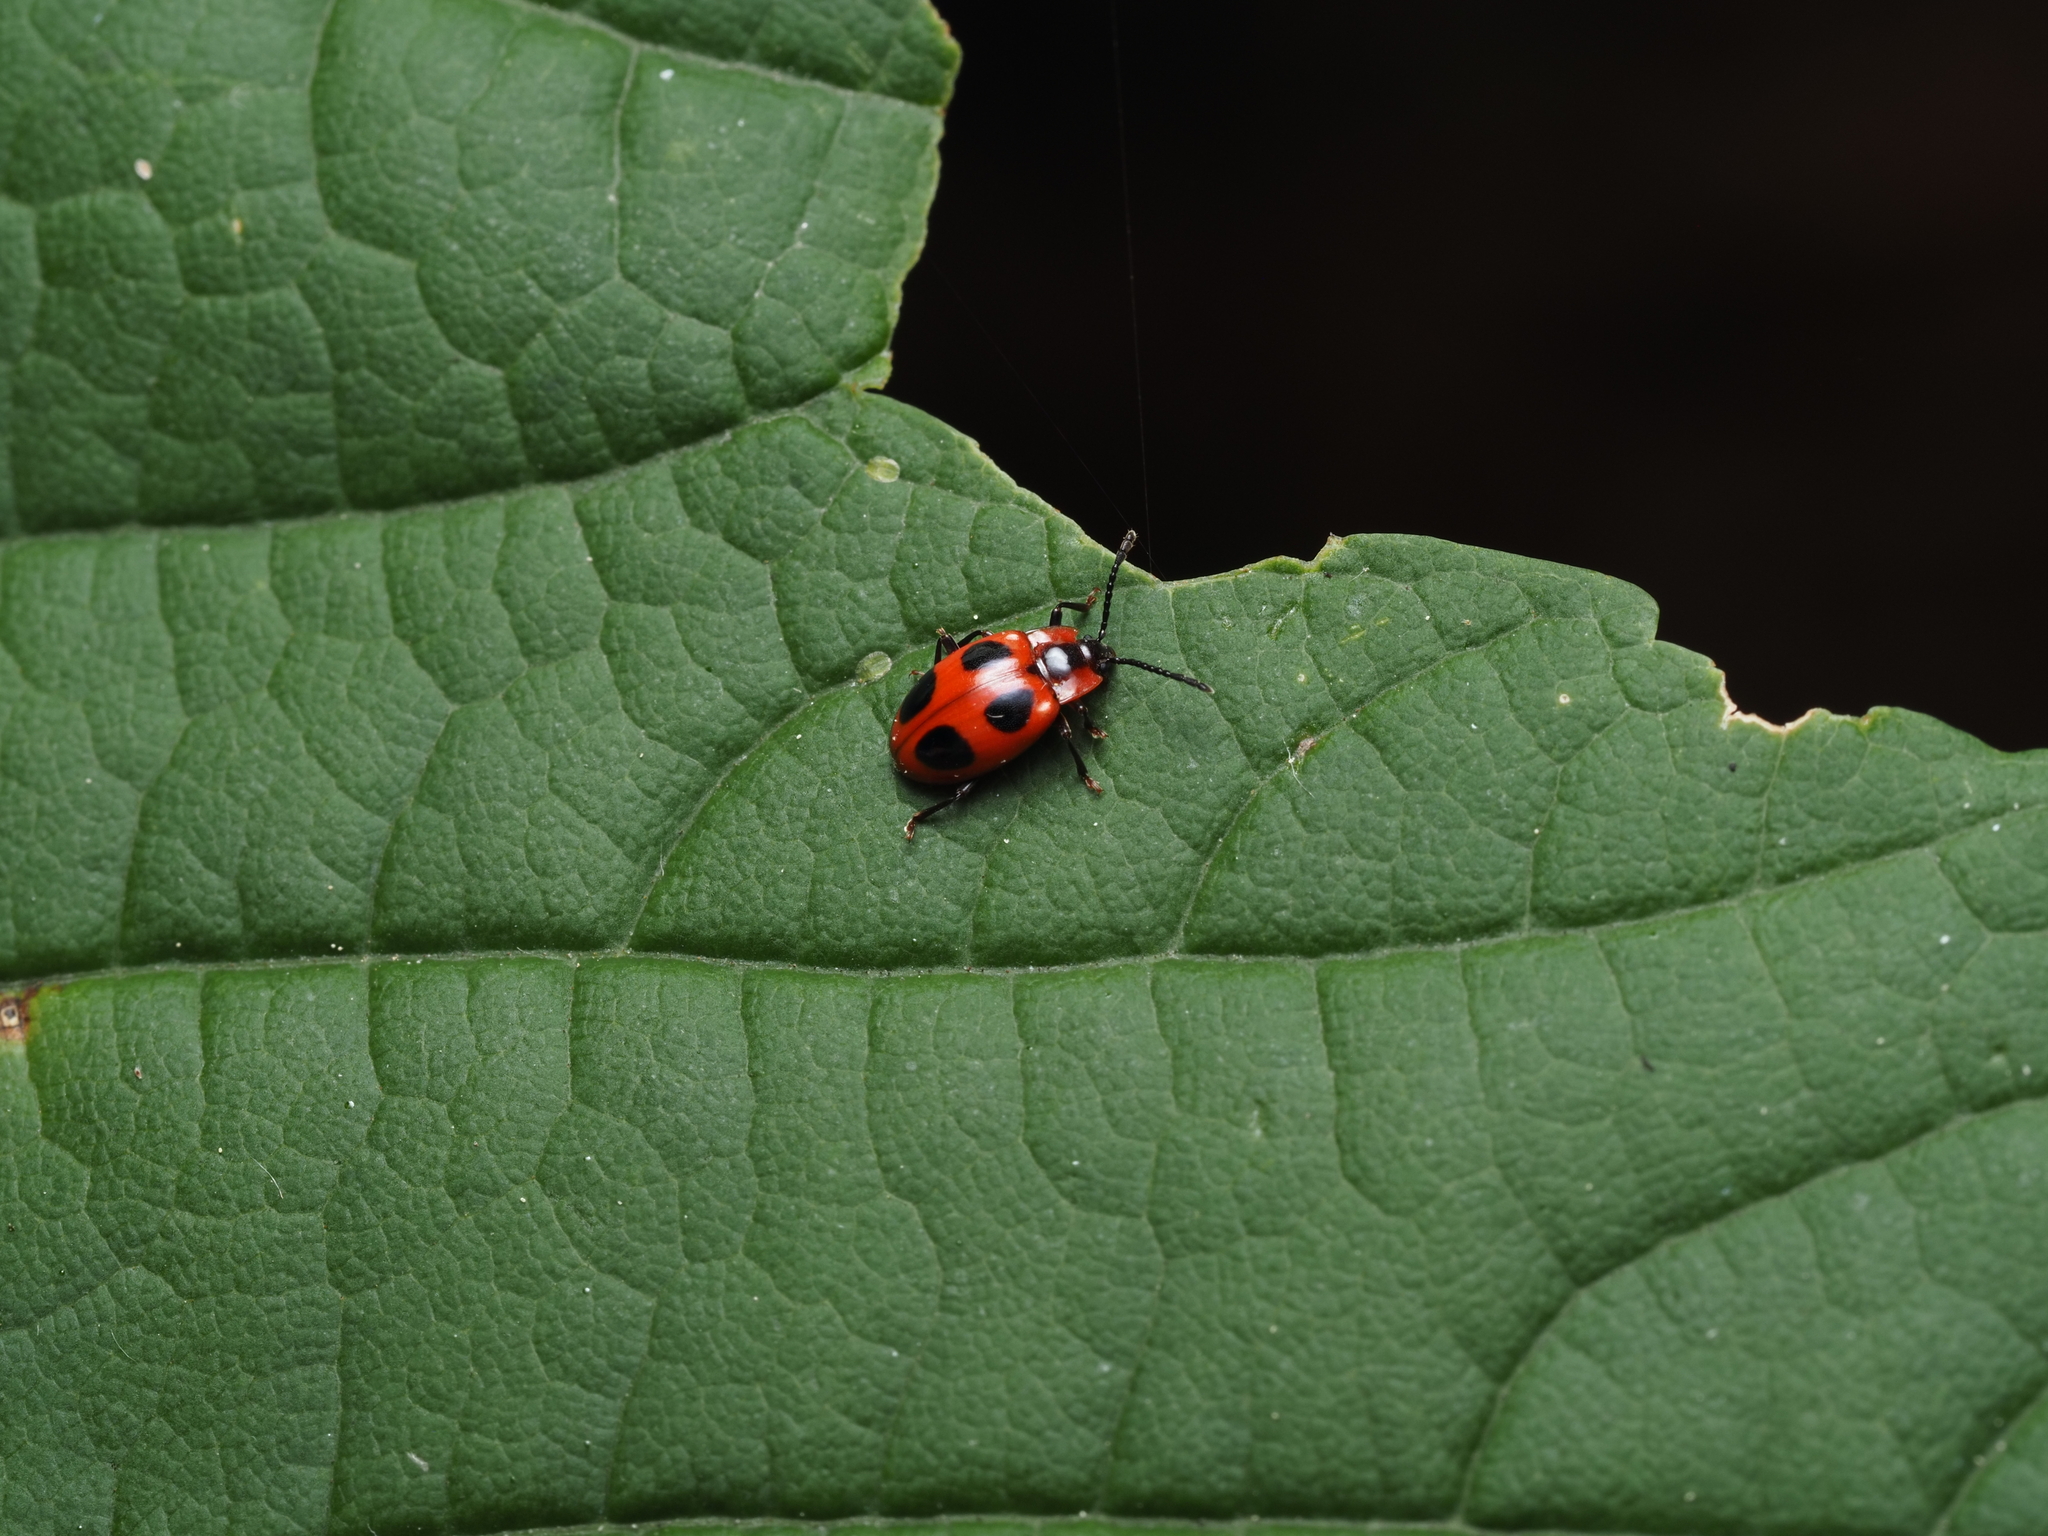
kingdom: Animalia
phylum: Arthropoda
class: Insecta
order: Coleoptera
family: Endomychidae
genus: Endomychus
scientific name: Endomychus coccineus
